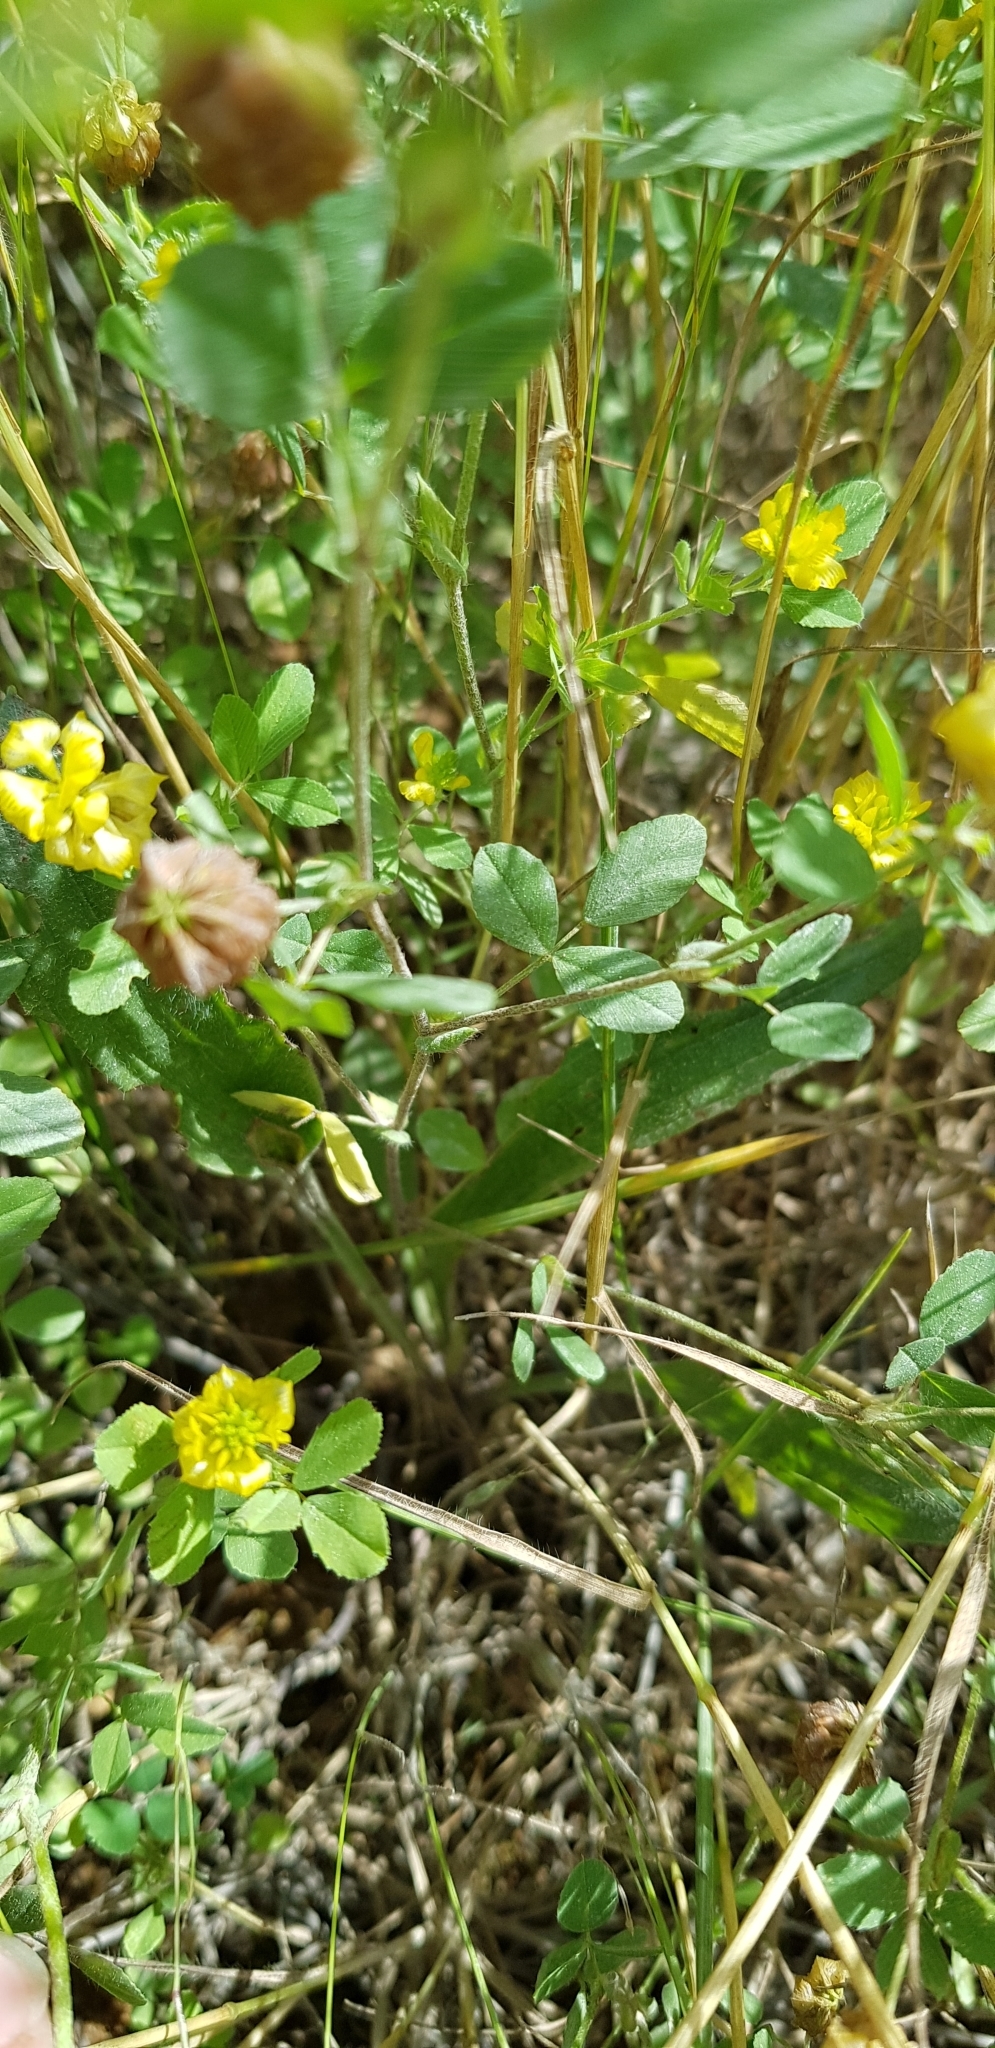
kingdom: Plantae
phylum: Tracheophyta
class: Magnoliopsida
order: Fabales
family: Fabaceae
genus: Trifolium
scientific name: Trifolium campestre
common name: Field clover
